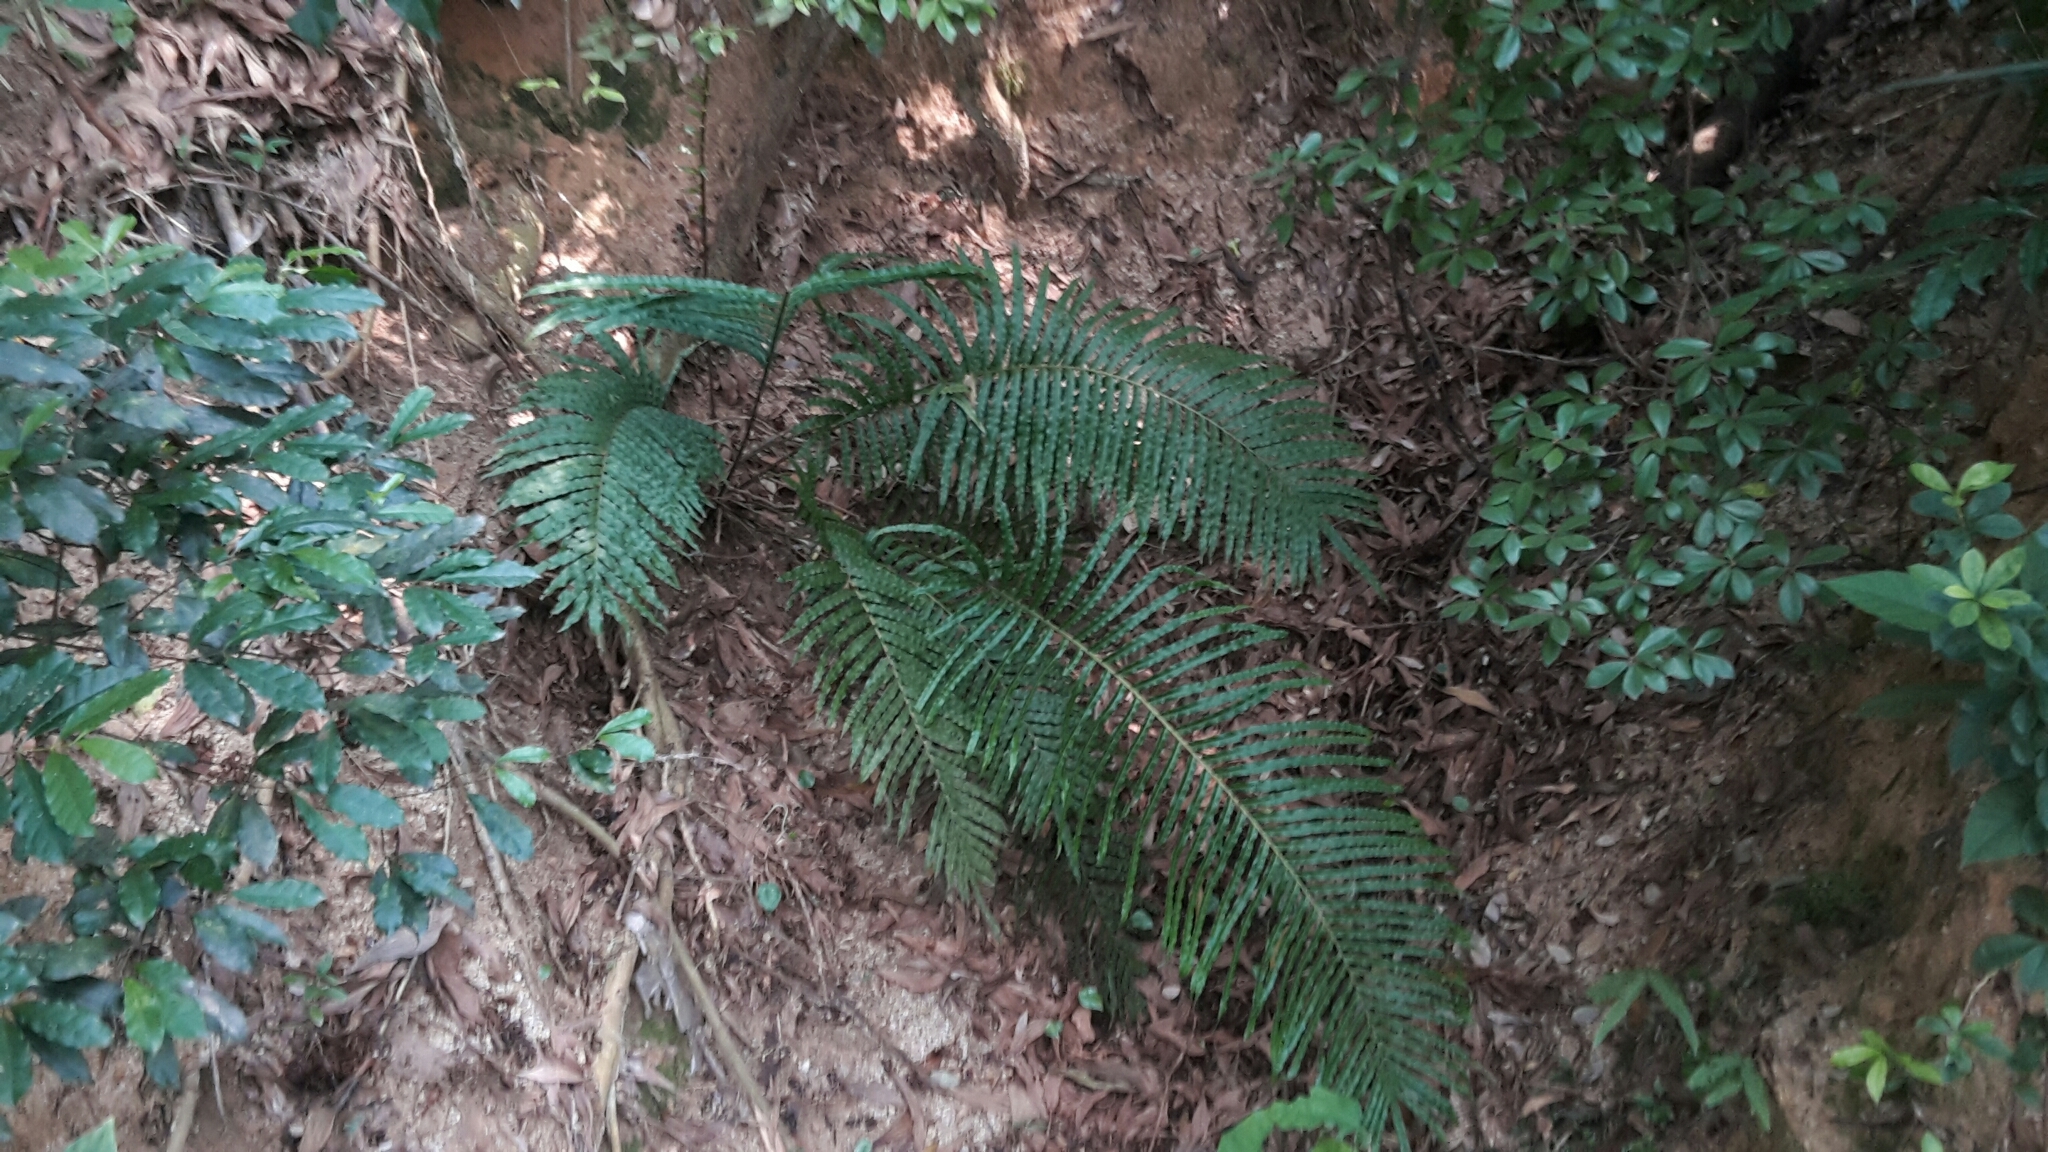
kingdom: Plantae
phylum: Tracheophyta
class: Polypodiopsida
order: Polypodiales
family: Blechnaceae
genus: Blechnopsis
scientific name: Blechnopsis orientalis
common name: Oriental blechnum
